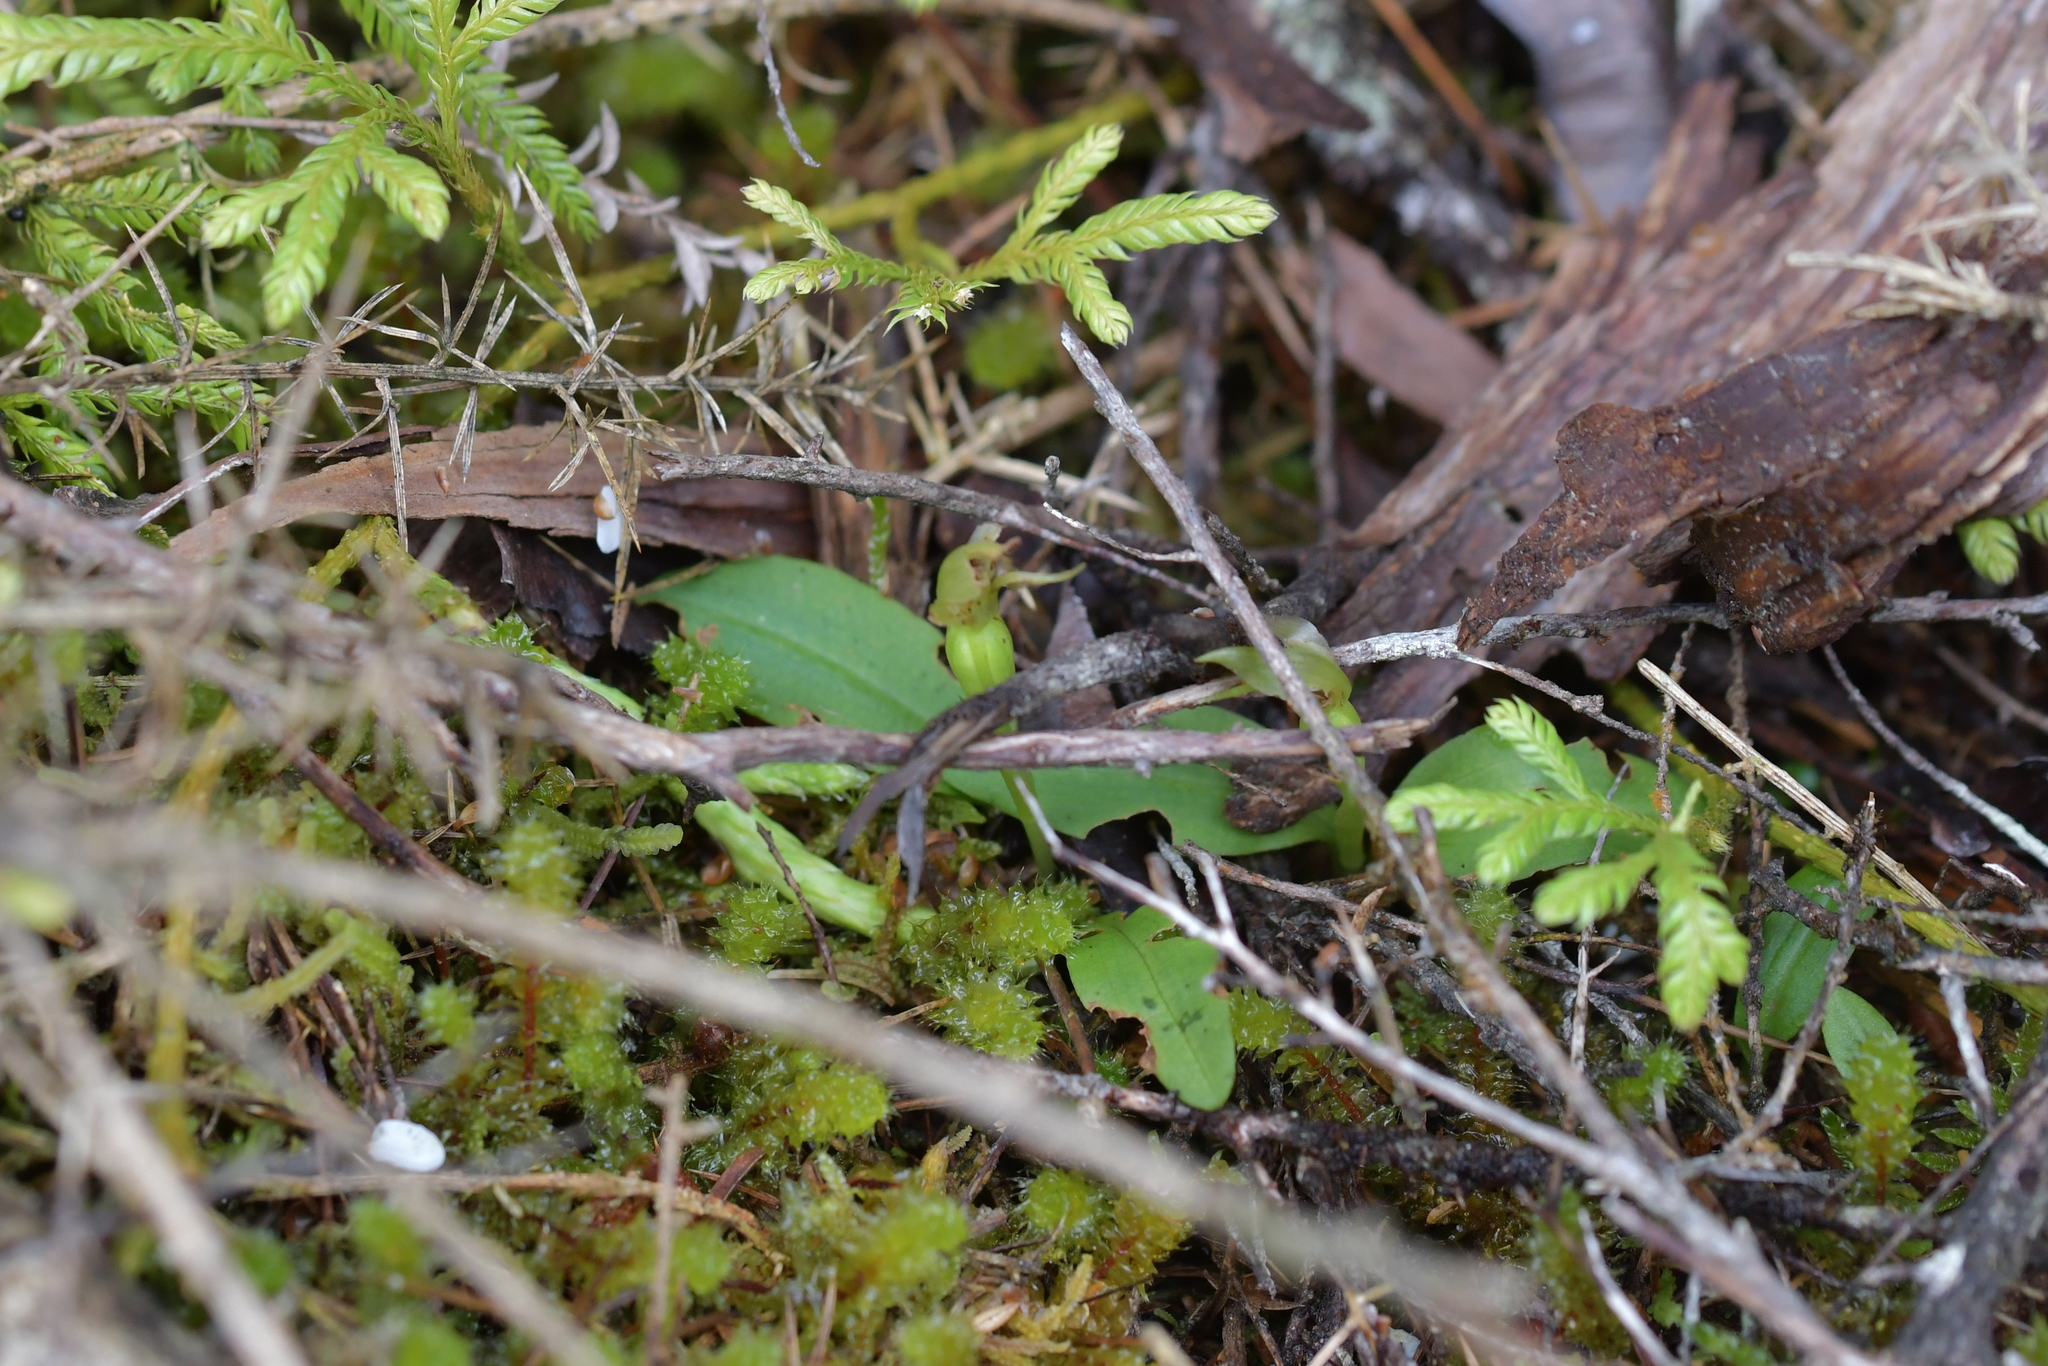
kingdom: Plantae
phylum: Tracheophyta
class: Liliopsida
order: Asparagales
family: Orchidaceae
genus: Chiloglottis
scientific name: Chiloglottis cornuta
